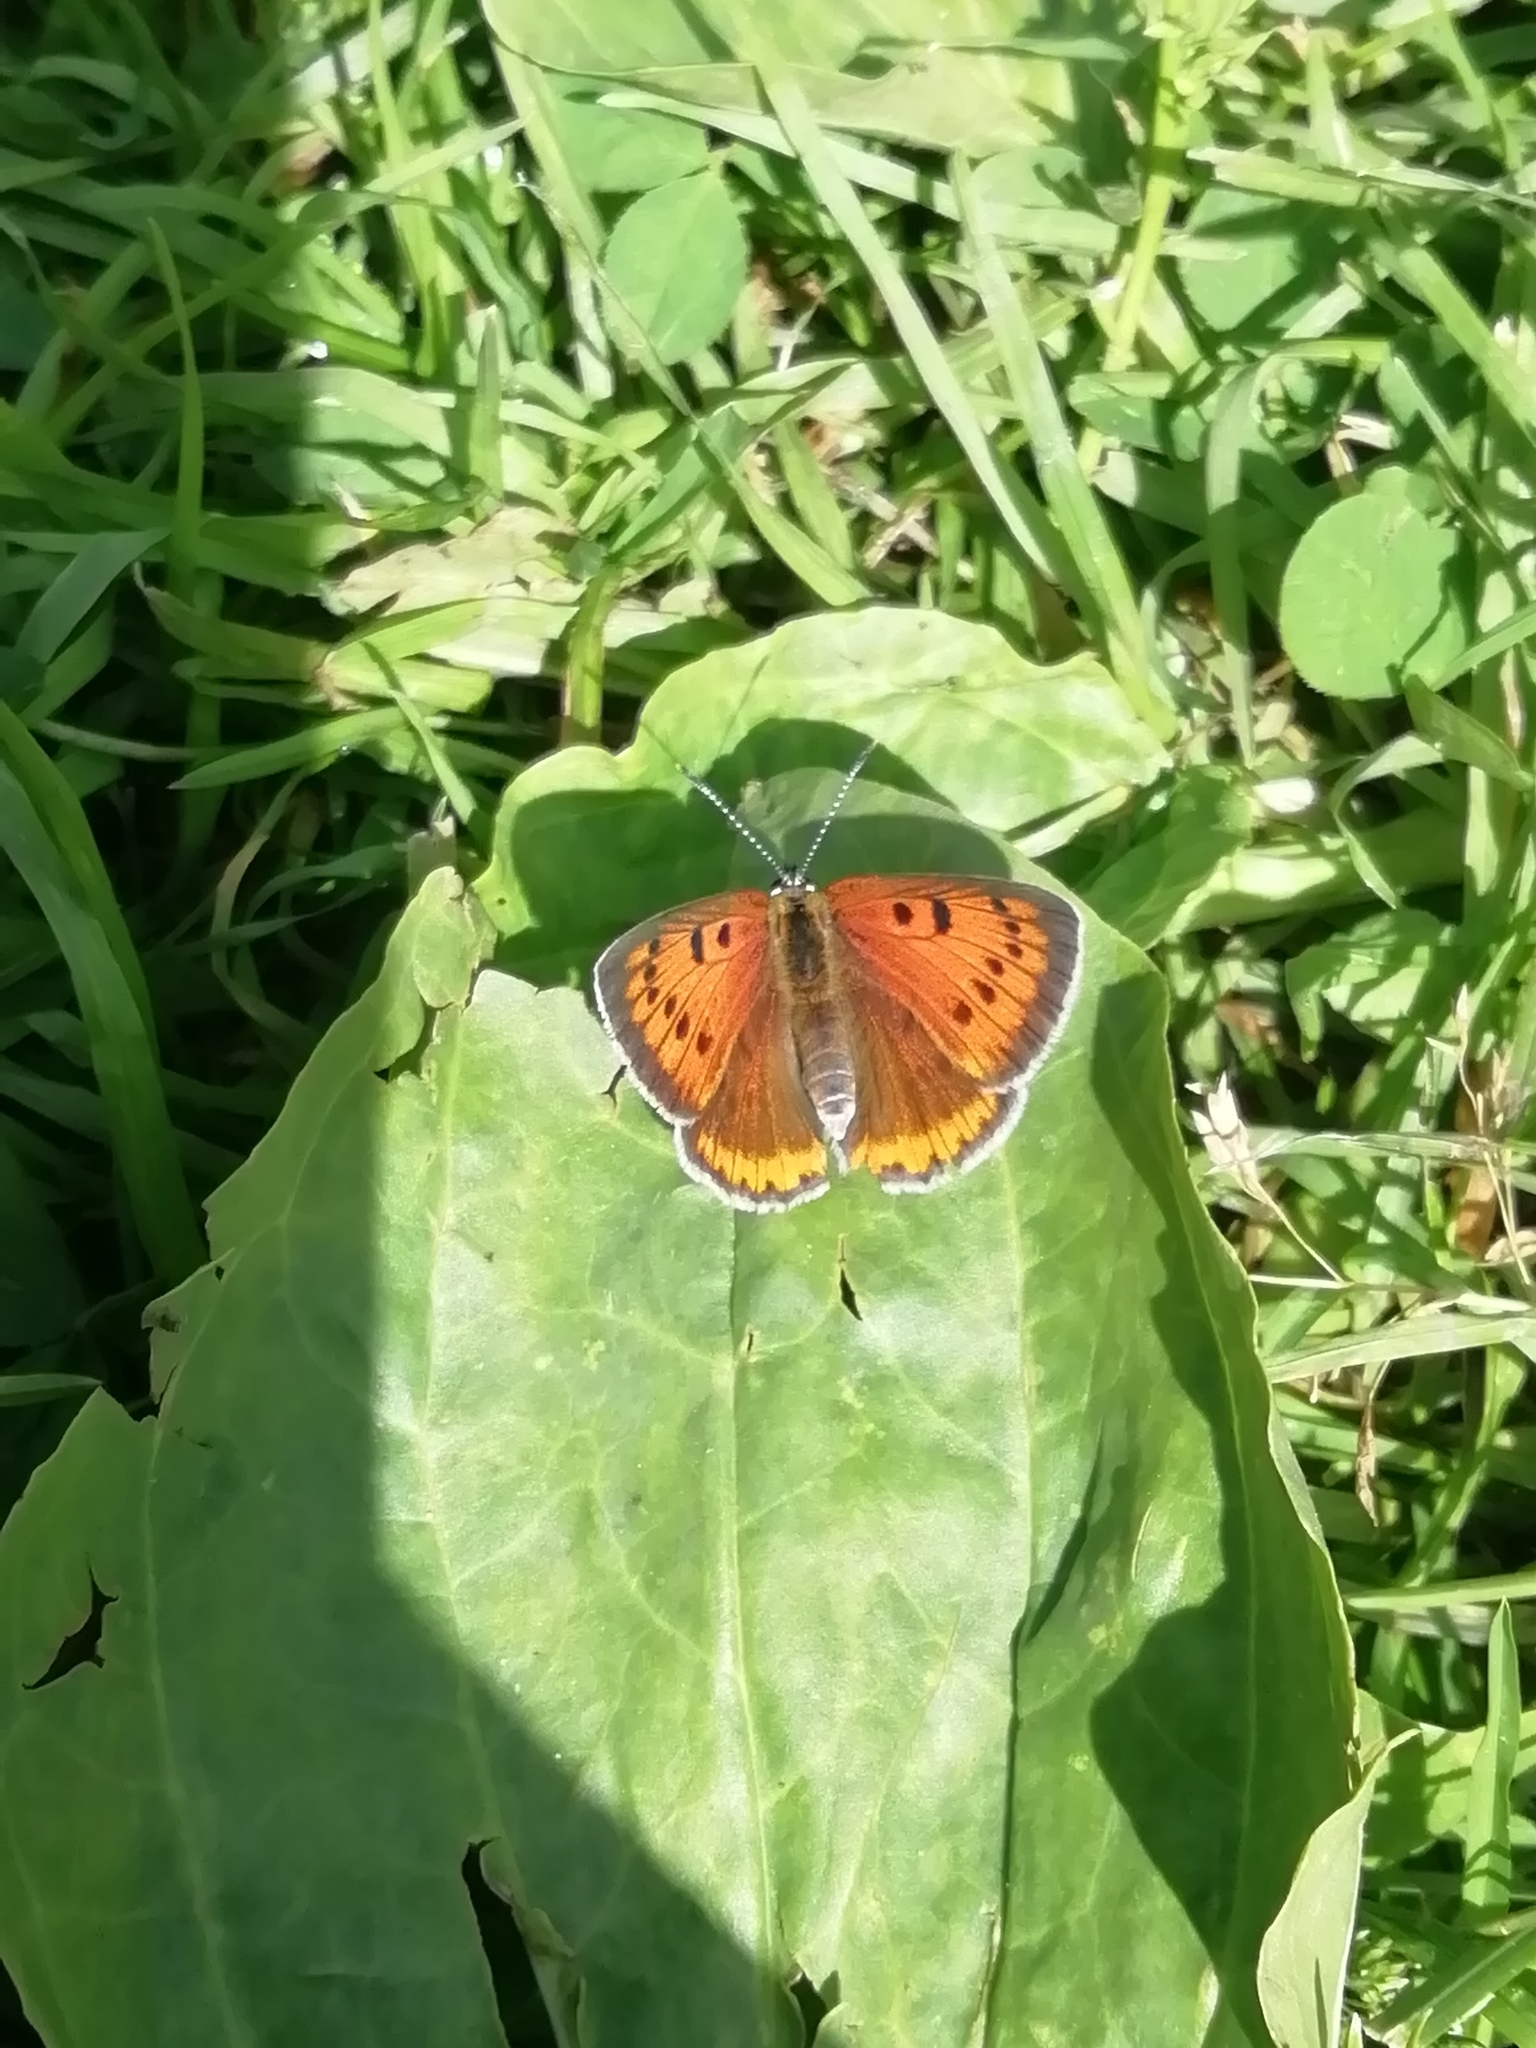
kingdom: Animalia
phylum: Arthropoda
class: Insecta
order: Lepidoptera
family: Lycaenidae
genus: Lycaena
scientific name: Lycaena dispar
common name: Large copper
